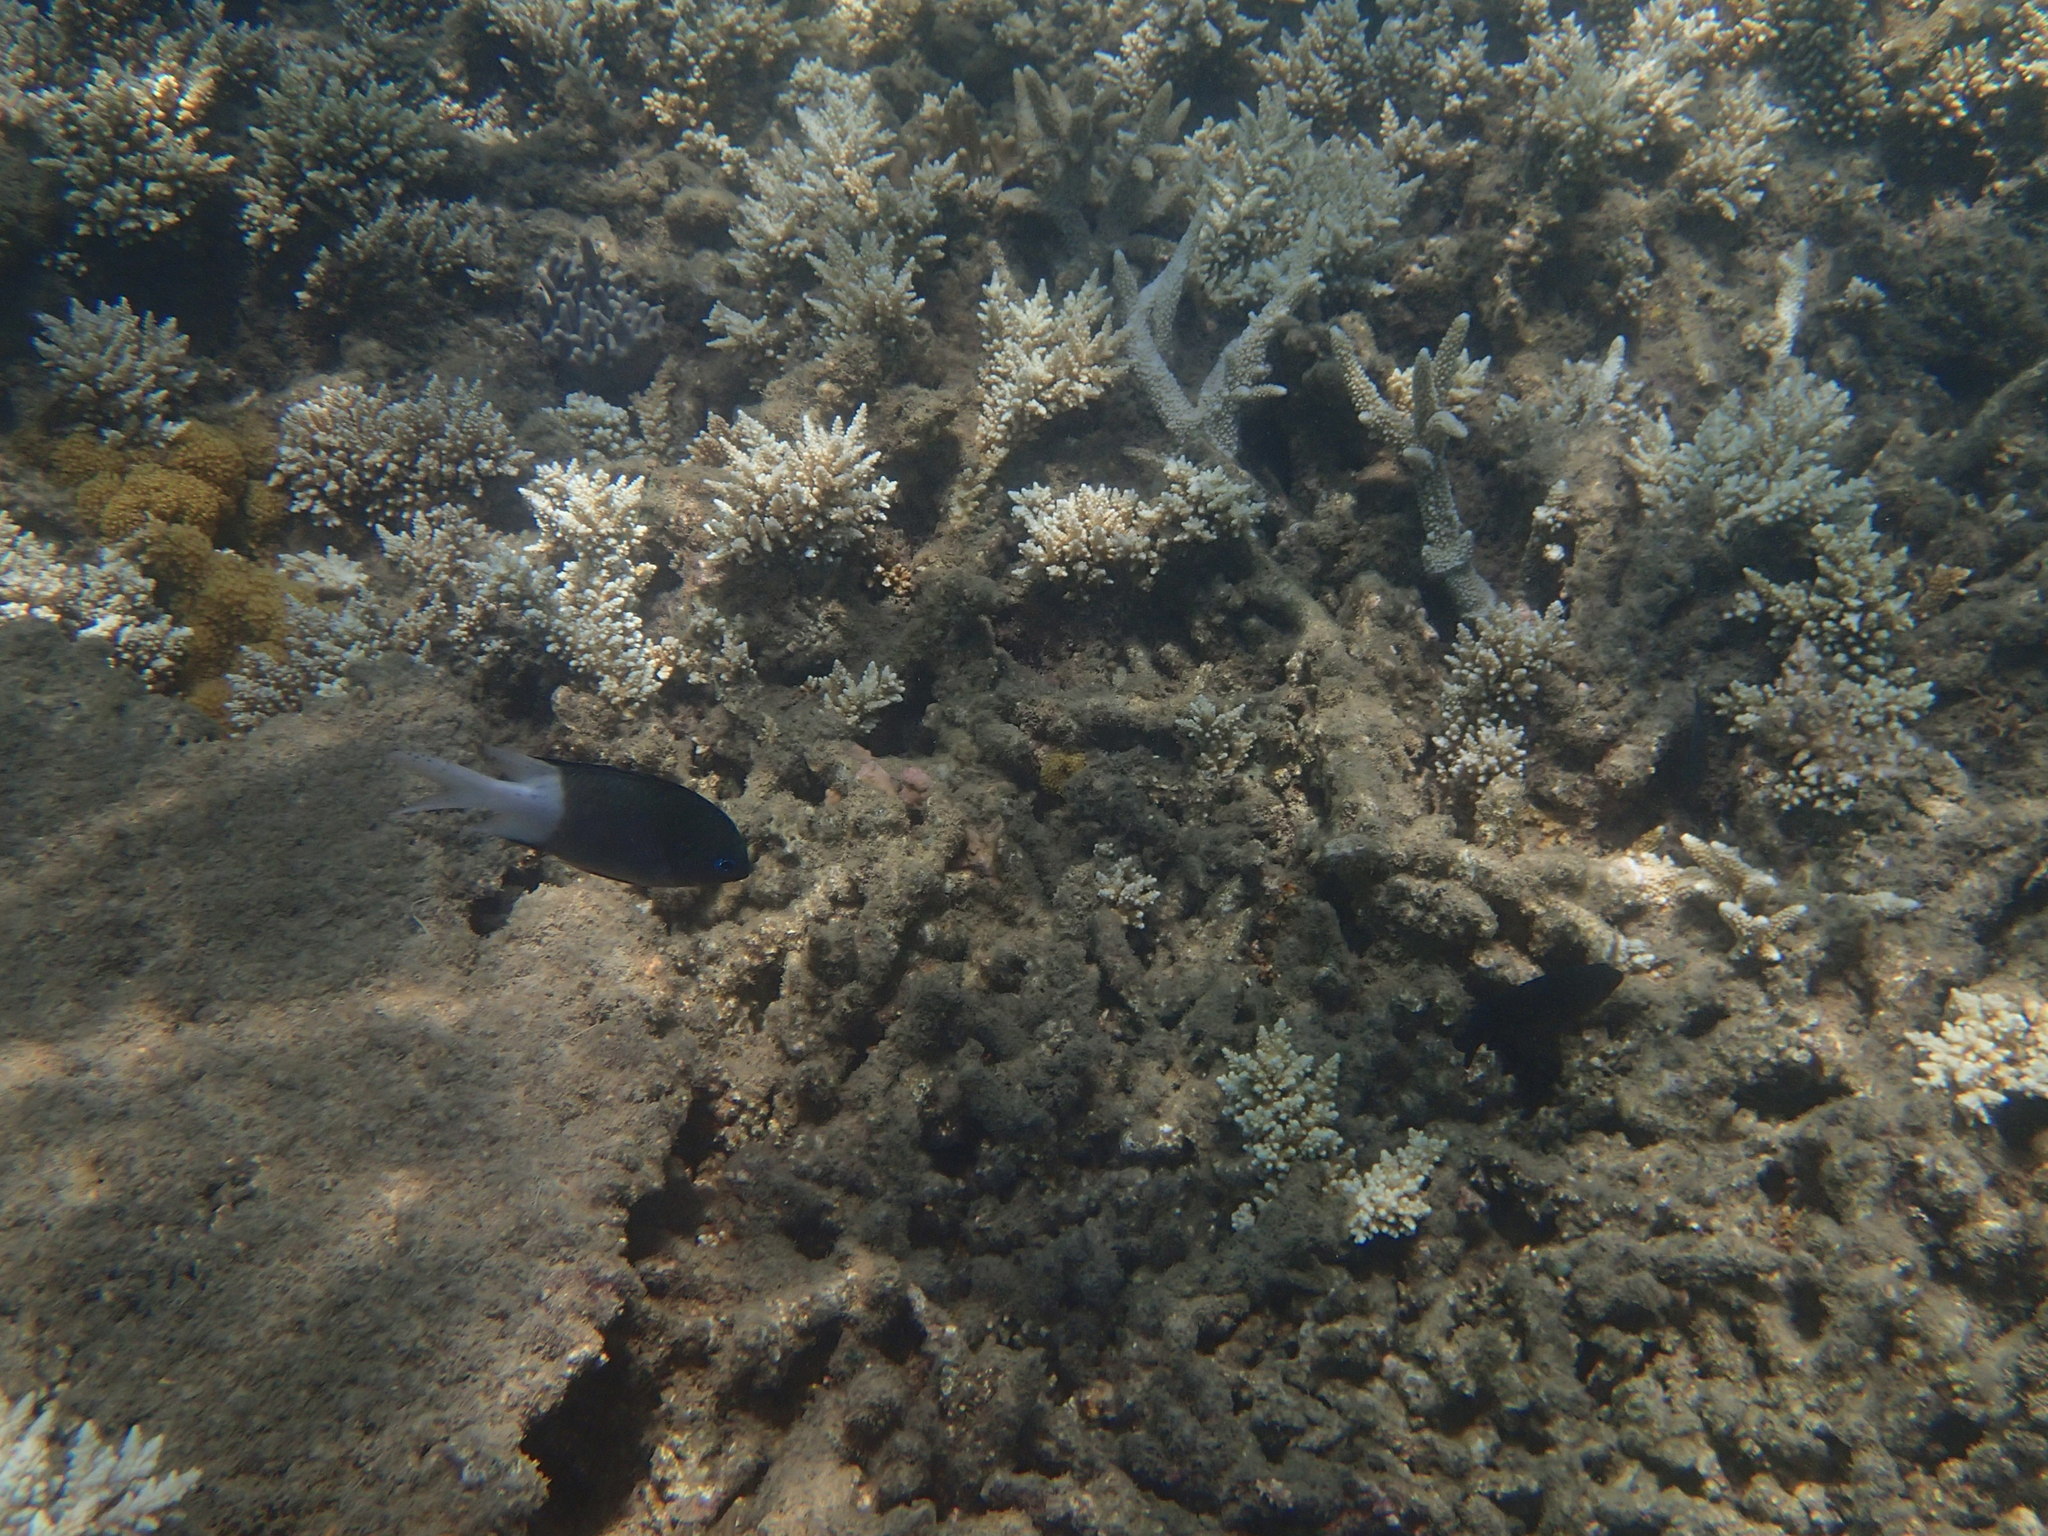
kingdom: Animalia
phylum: Chordata
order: Perciformes
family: Pomacentridae
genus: Acanthochromis
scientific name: Acanthochromis polyacanthus
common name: Spiny chromis
